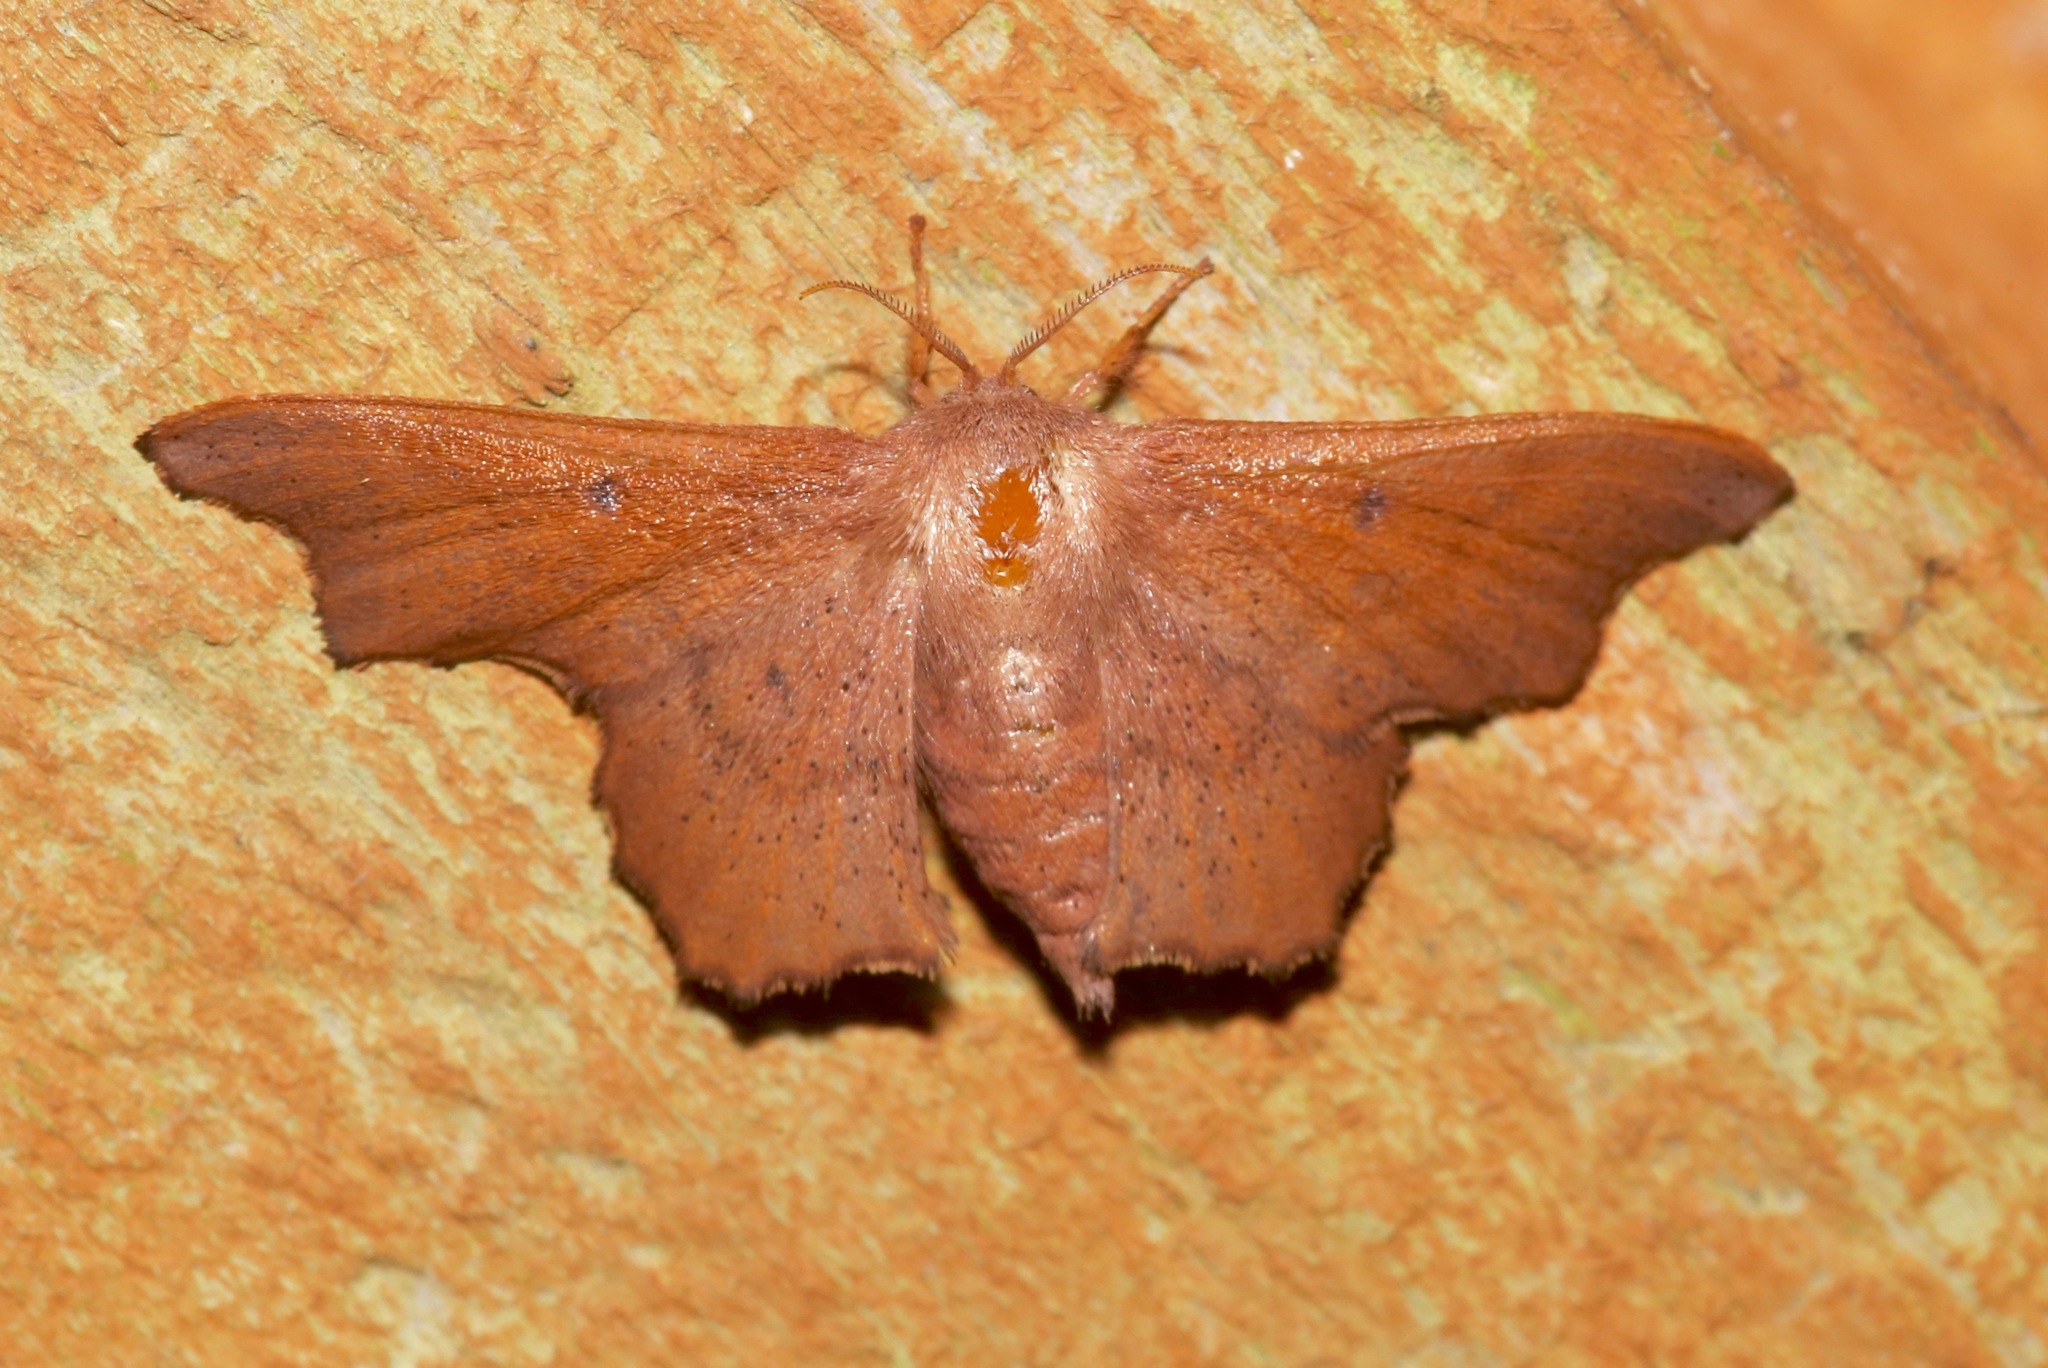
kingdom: Animalia
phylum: Arthropoda
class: Insecta
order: Lepidoptera
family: Mimallonidae
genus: Lacosoma
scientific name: Lacosoma chiridota
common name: Scalloped sack-bearer moth
